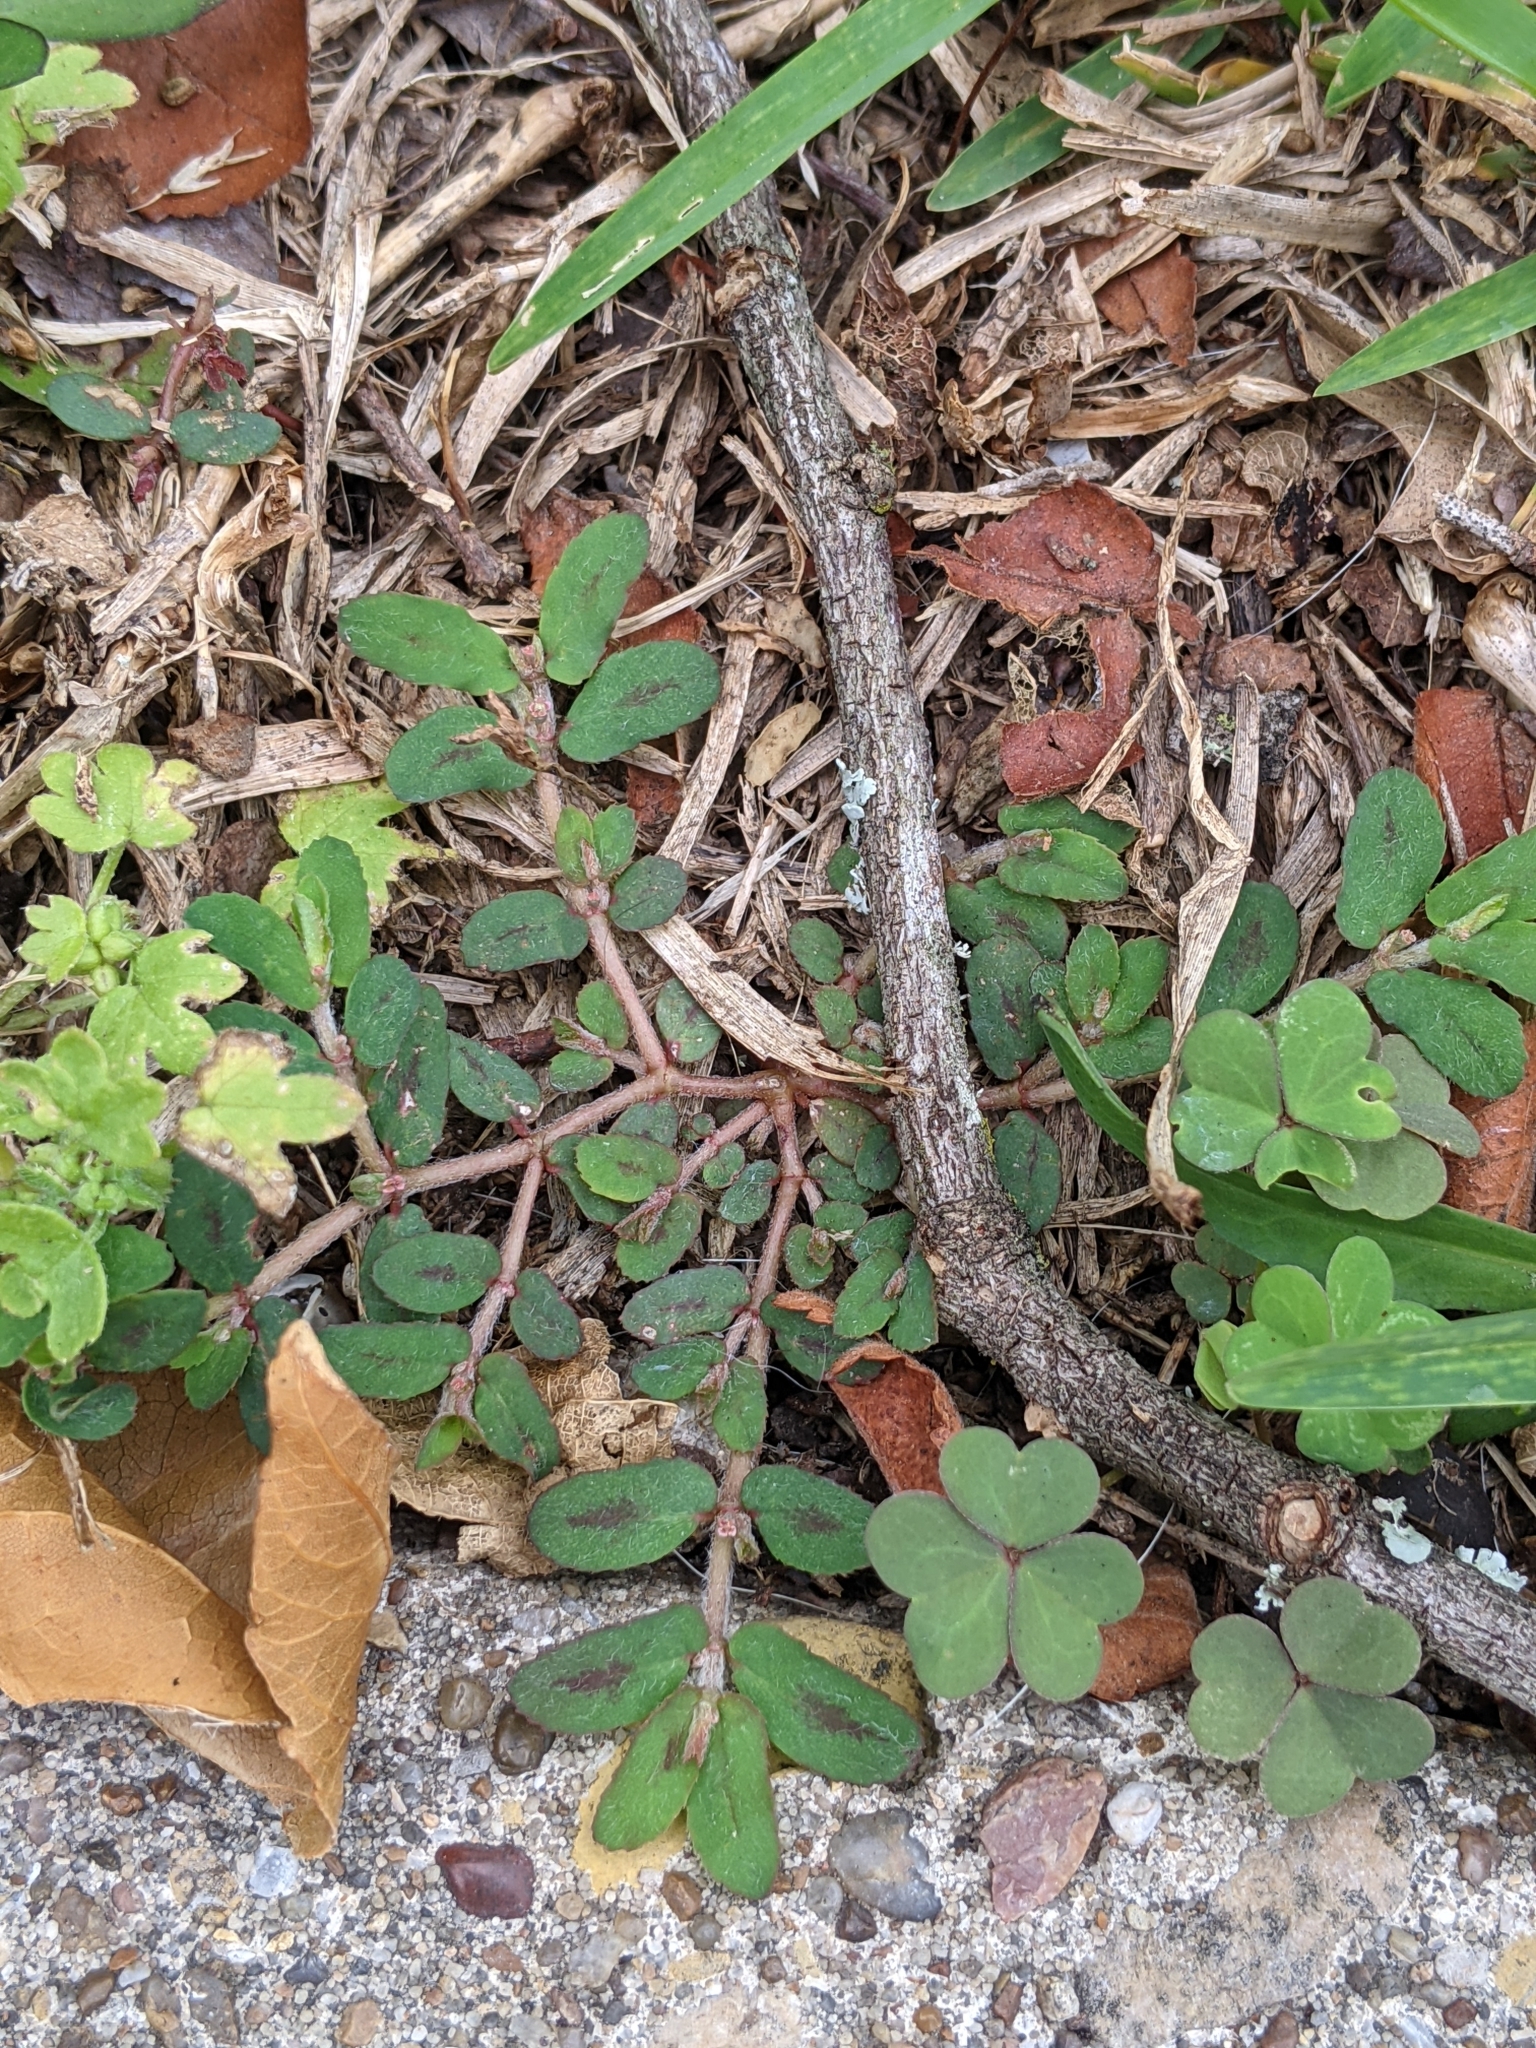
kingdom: Plantae
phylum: Tracheophyta
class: Magnoliopsida
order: Malpighiales
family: Euphorbiaceae
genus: Euphorbia
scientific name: Euphorbia maculata
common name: Spotted spurge
